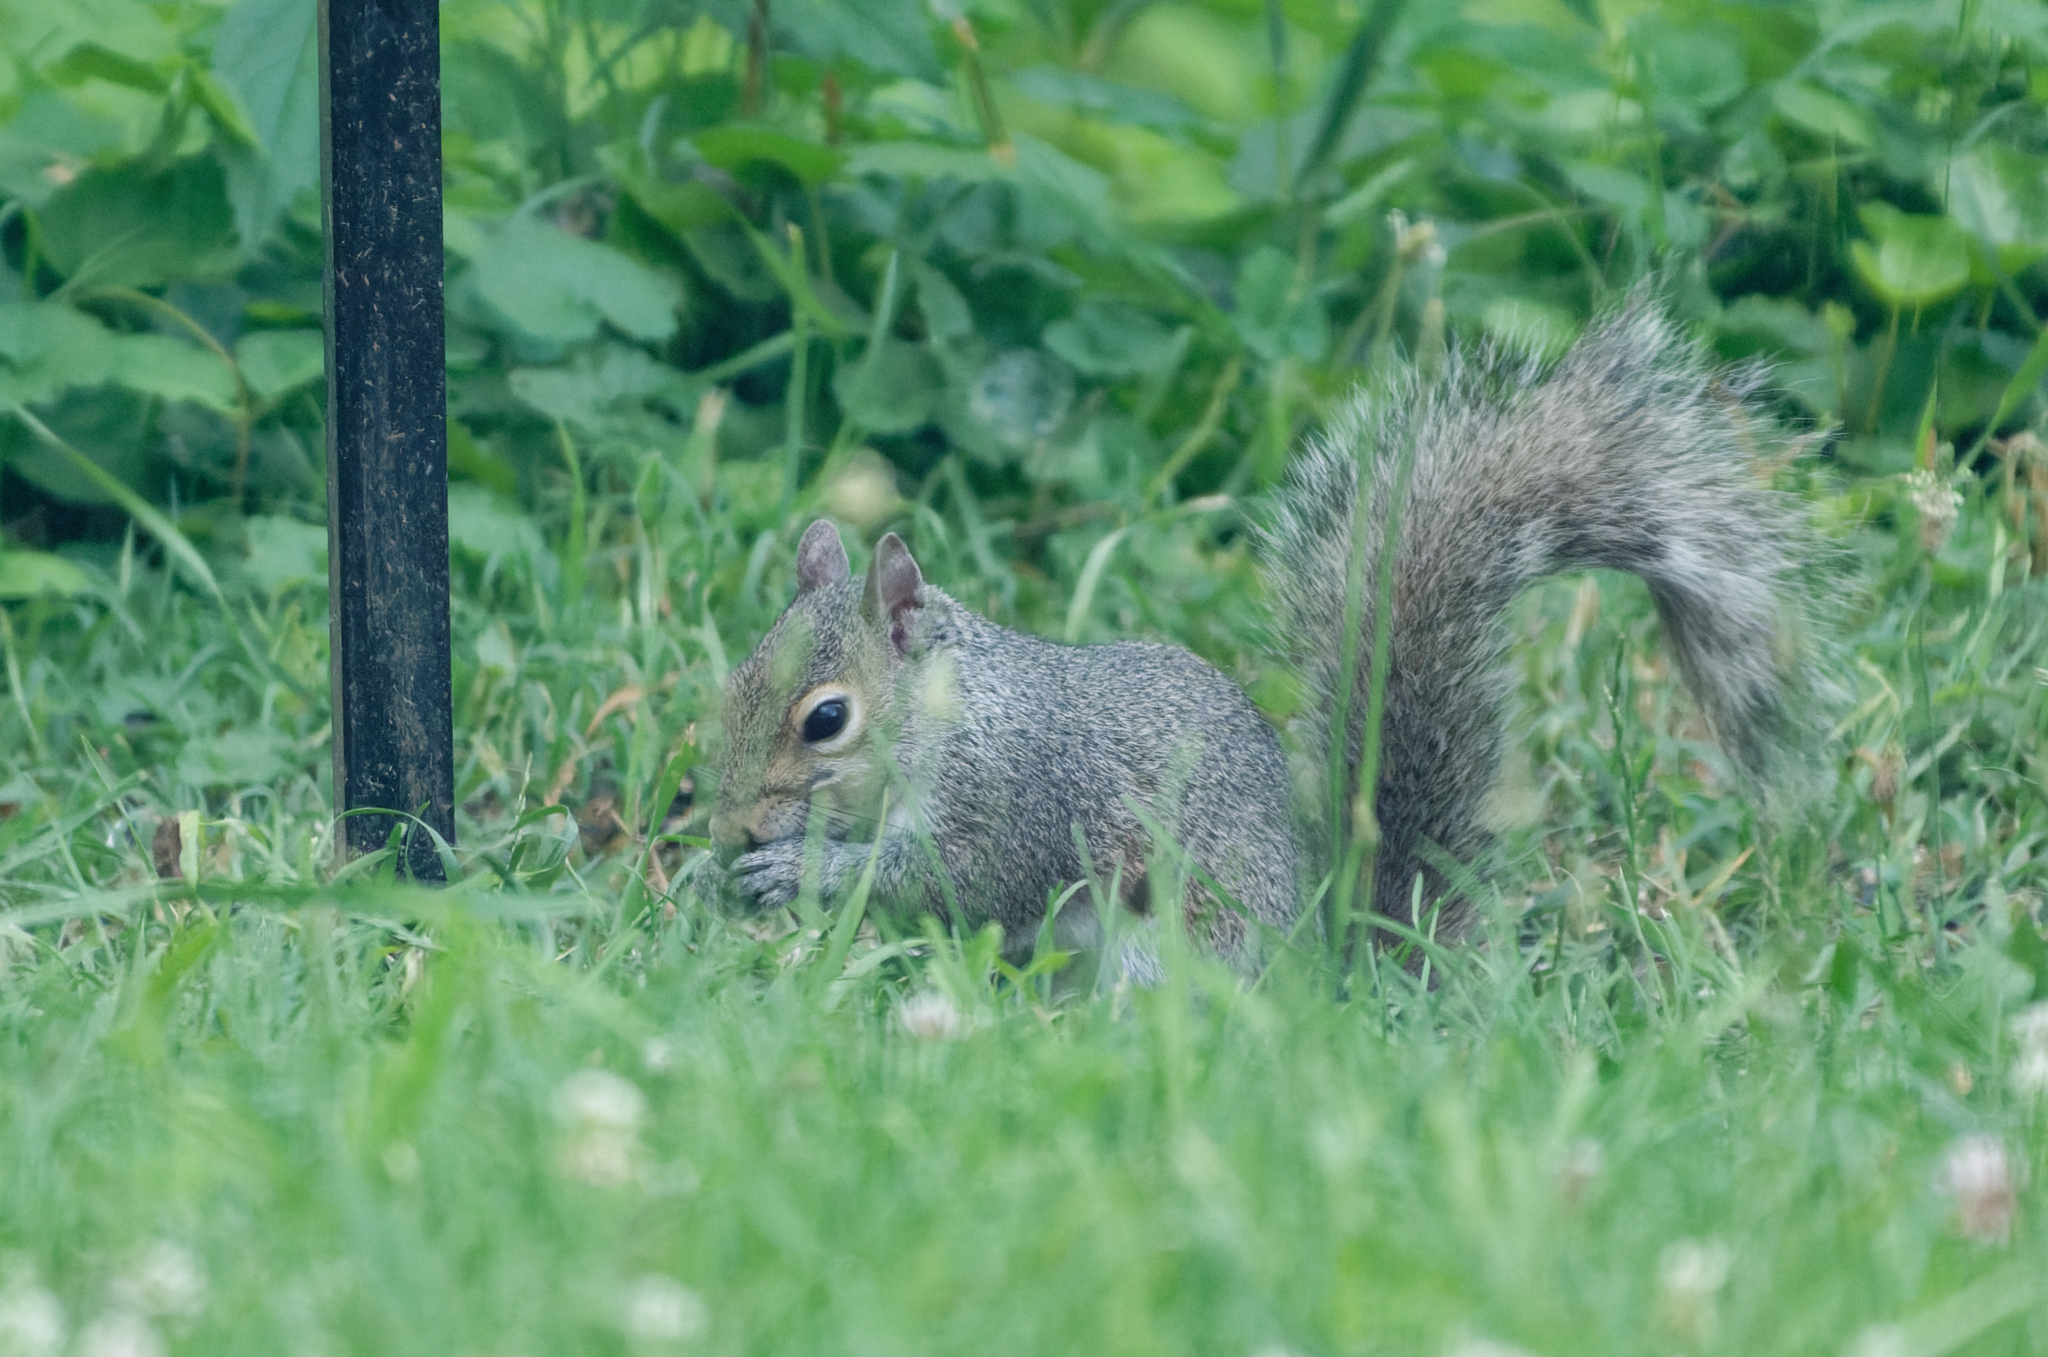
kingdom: Animalia
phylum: Chordata
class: Mammalia
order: Rodentia
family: Sciuridae
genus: Sciurus
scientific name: Sciurus carolinensis
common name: Eastern gray squirrel
